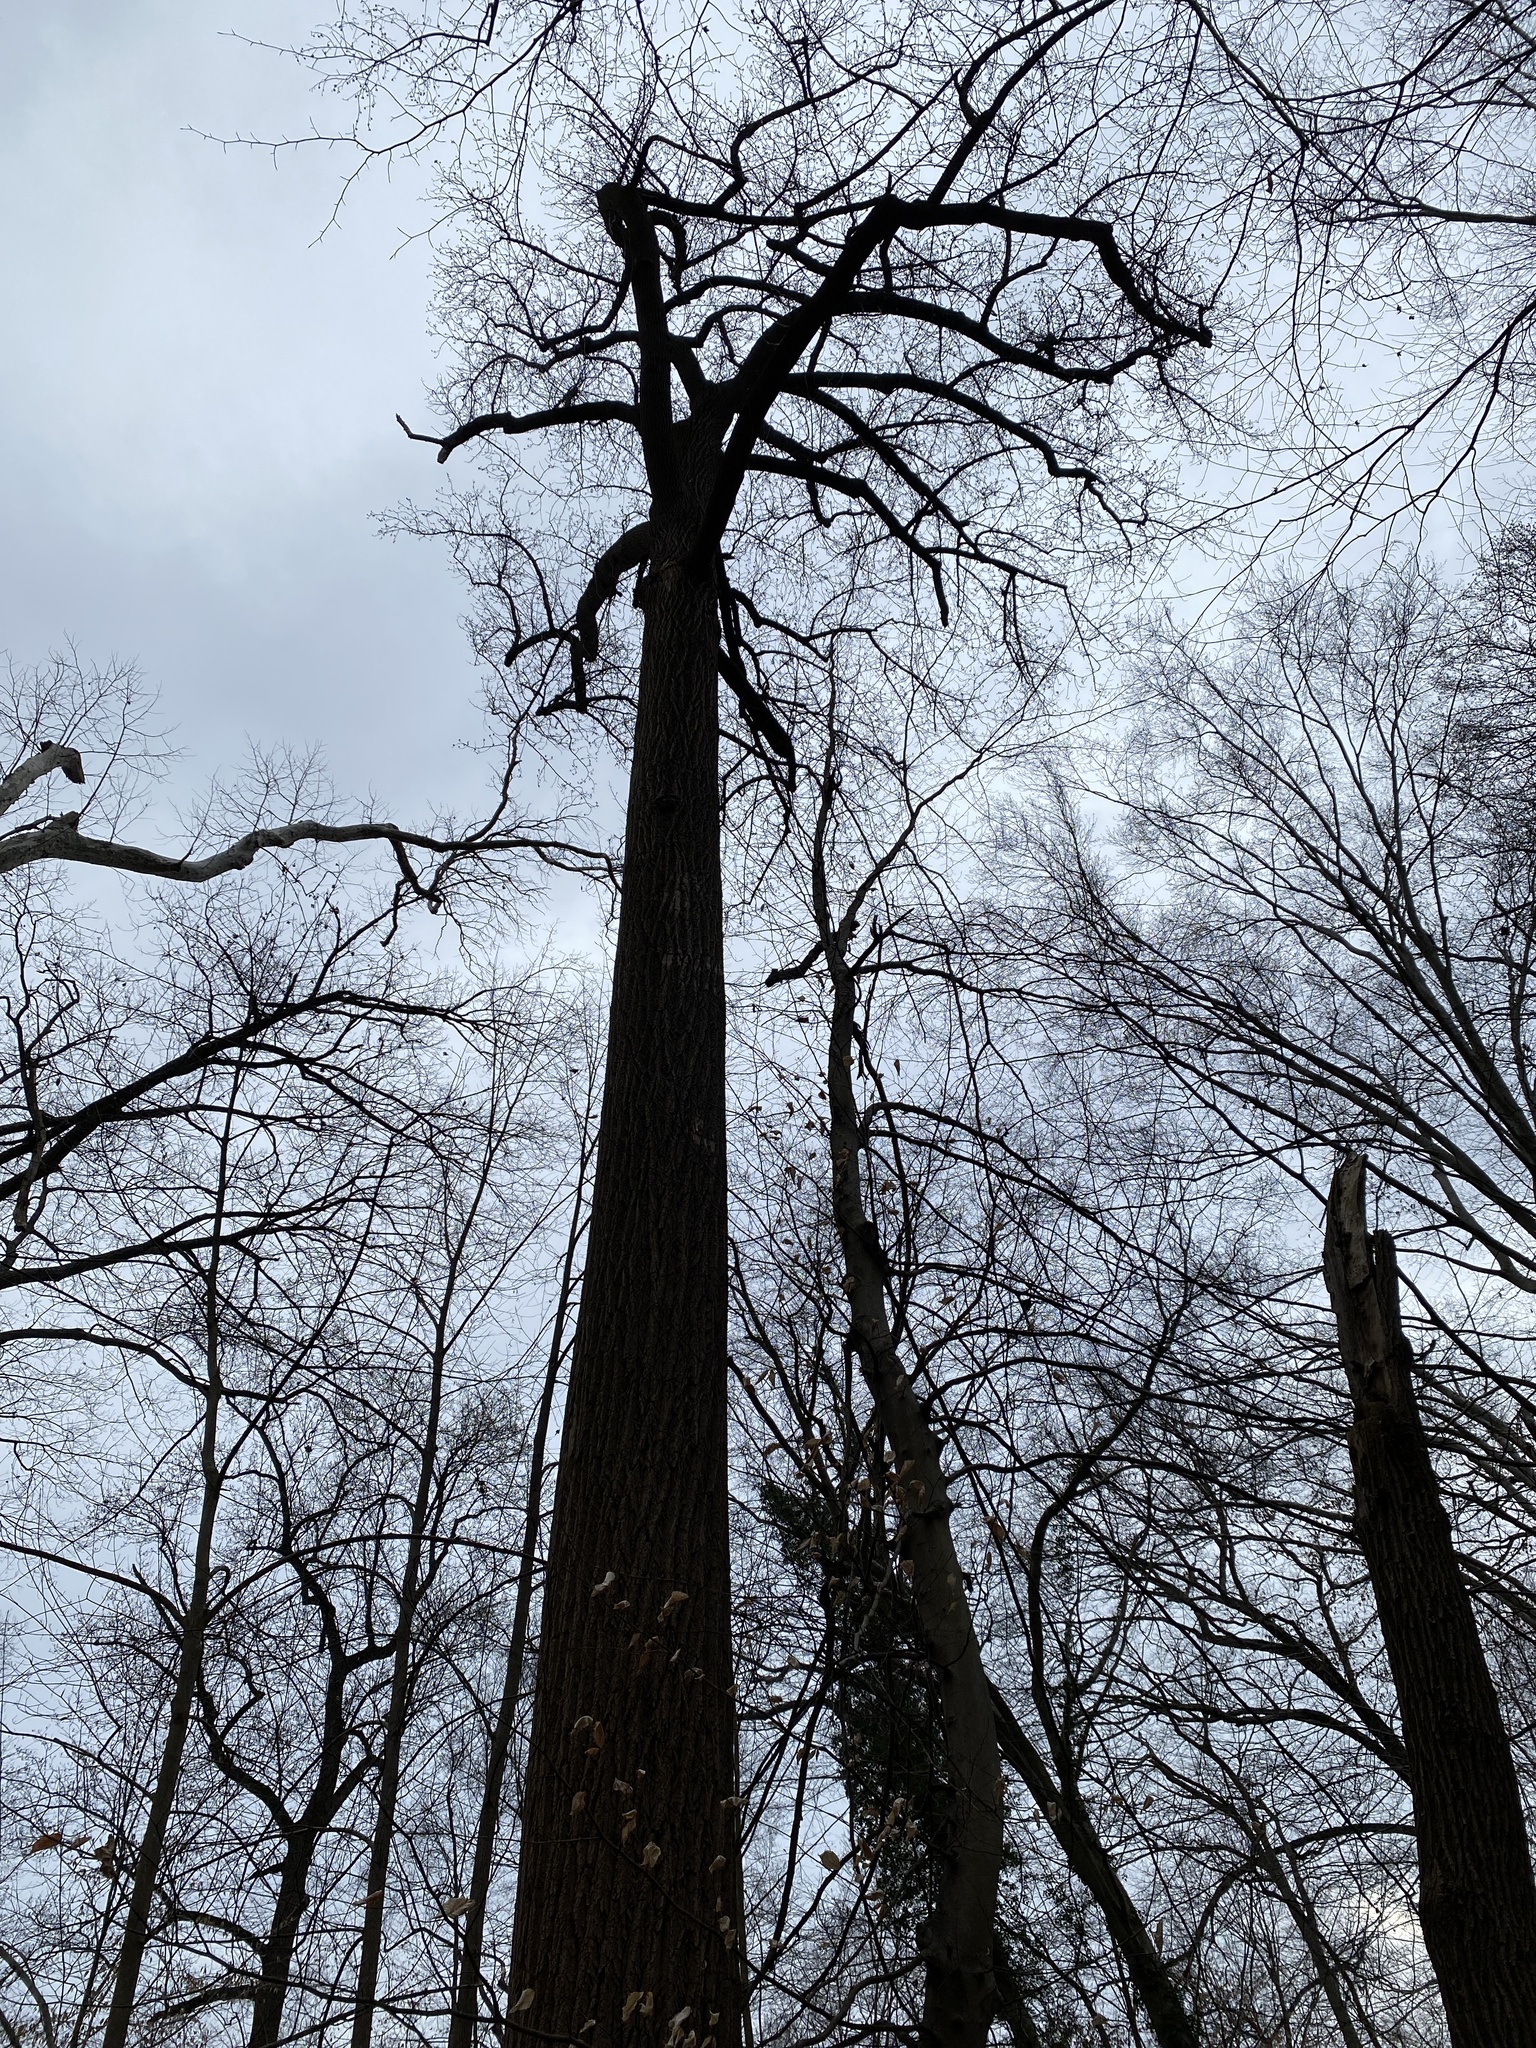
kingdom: Plantae
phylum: Tracheophyta
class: Magnoliopsida
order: Magnoliales
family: Magnoliaceae
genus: Liriodendron
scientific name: Liriodendron tulipifera
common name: Tulip tree
